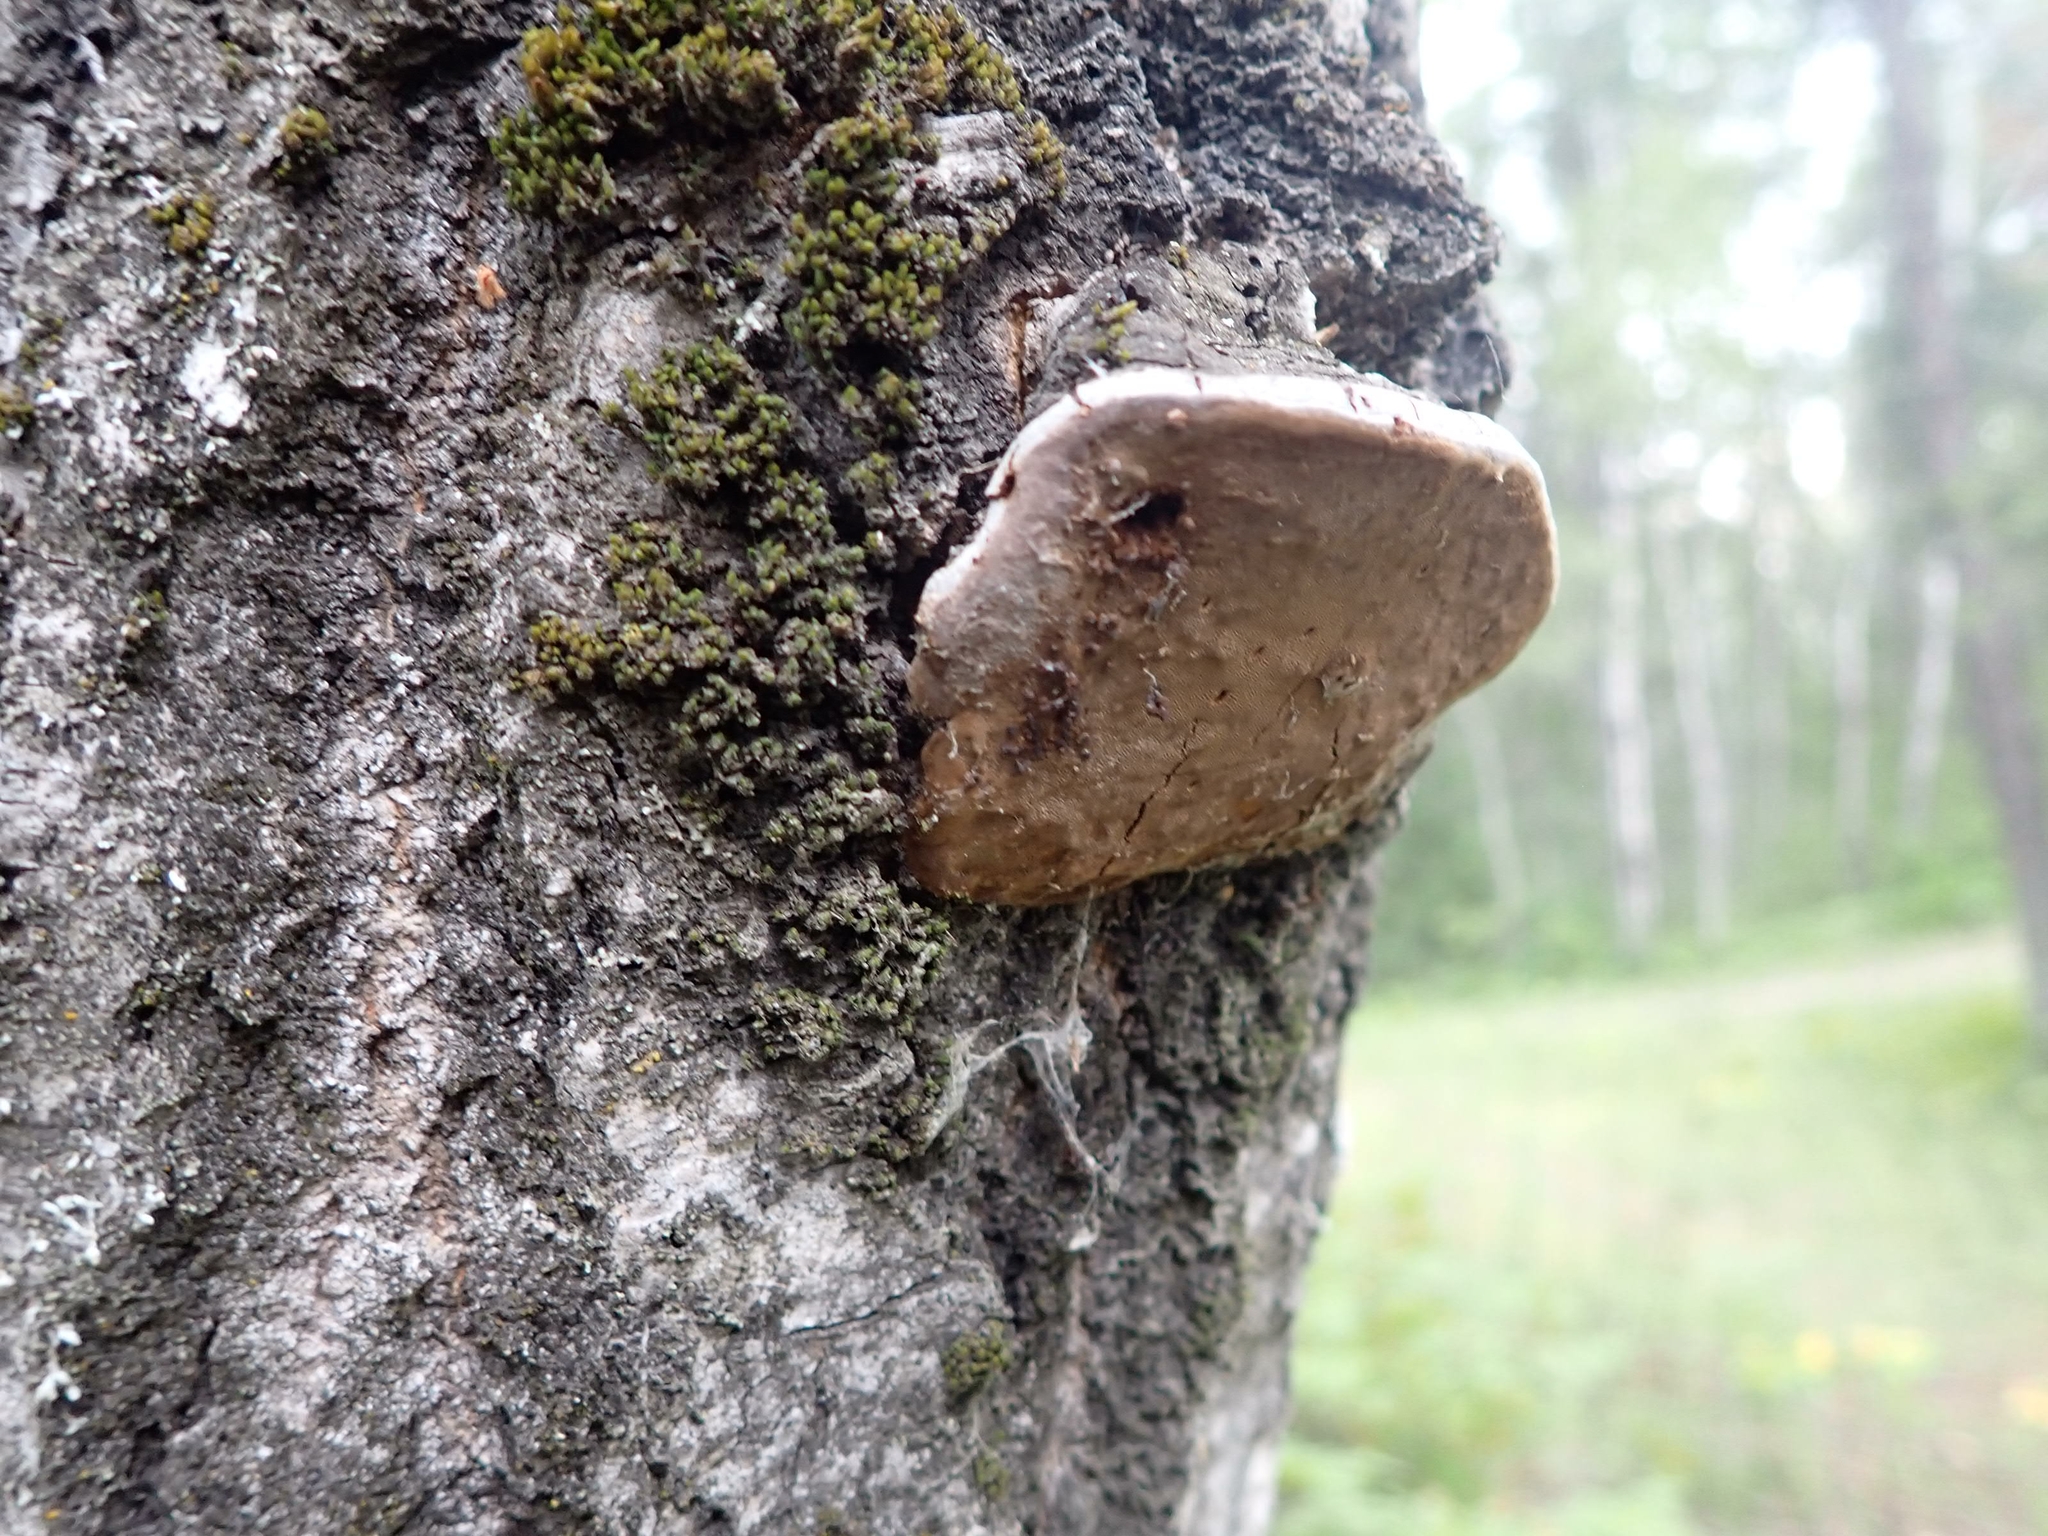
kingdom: Fungi
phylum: Basidiomycota
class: Agaricomycetes
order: Hymenochaetales
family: Hymenochaetaceae
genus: Phellinus
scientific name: Phellinus tremulae
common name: Aspen bracket
